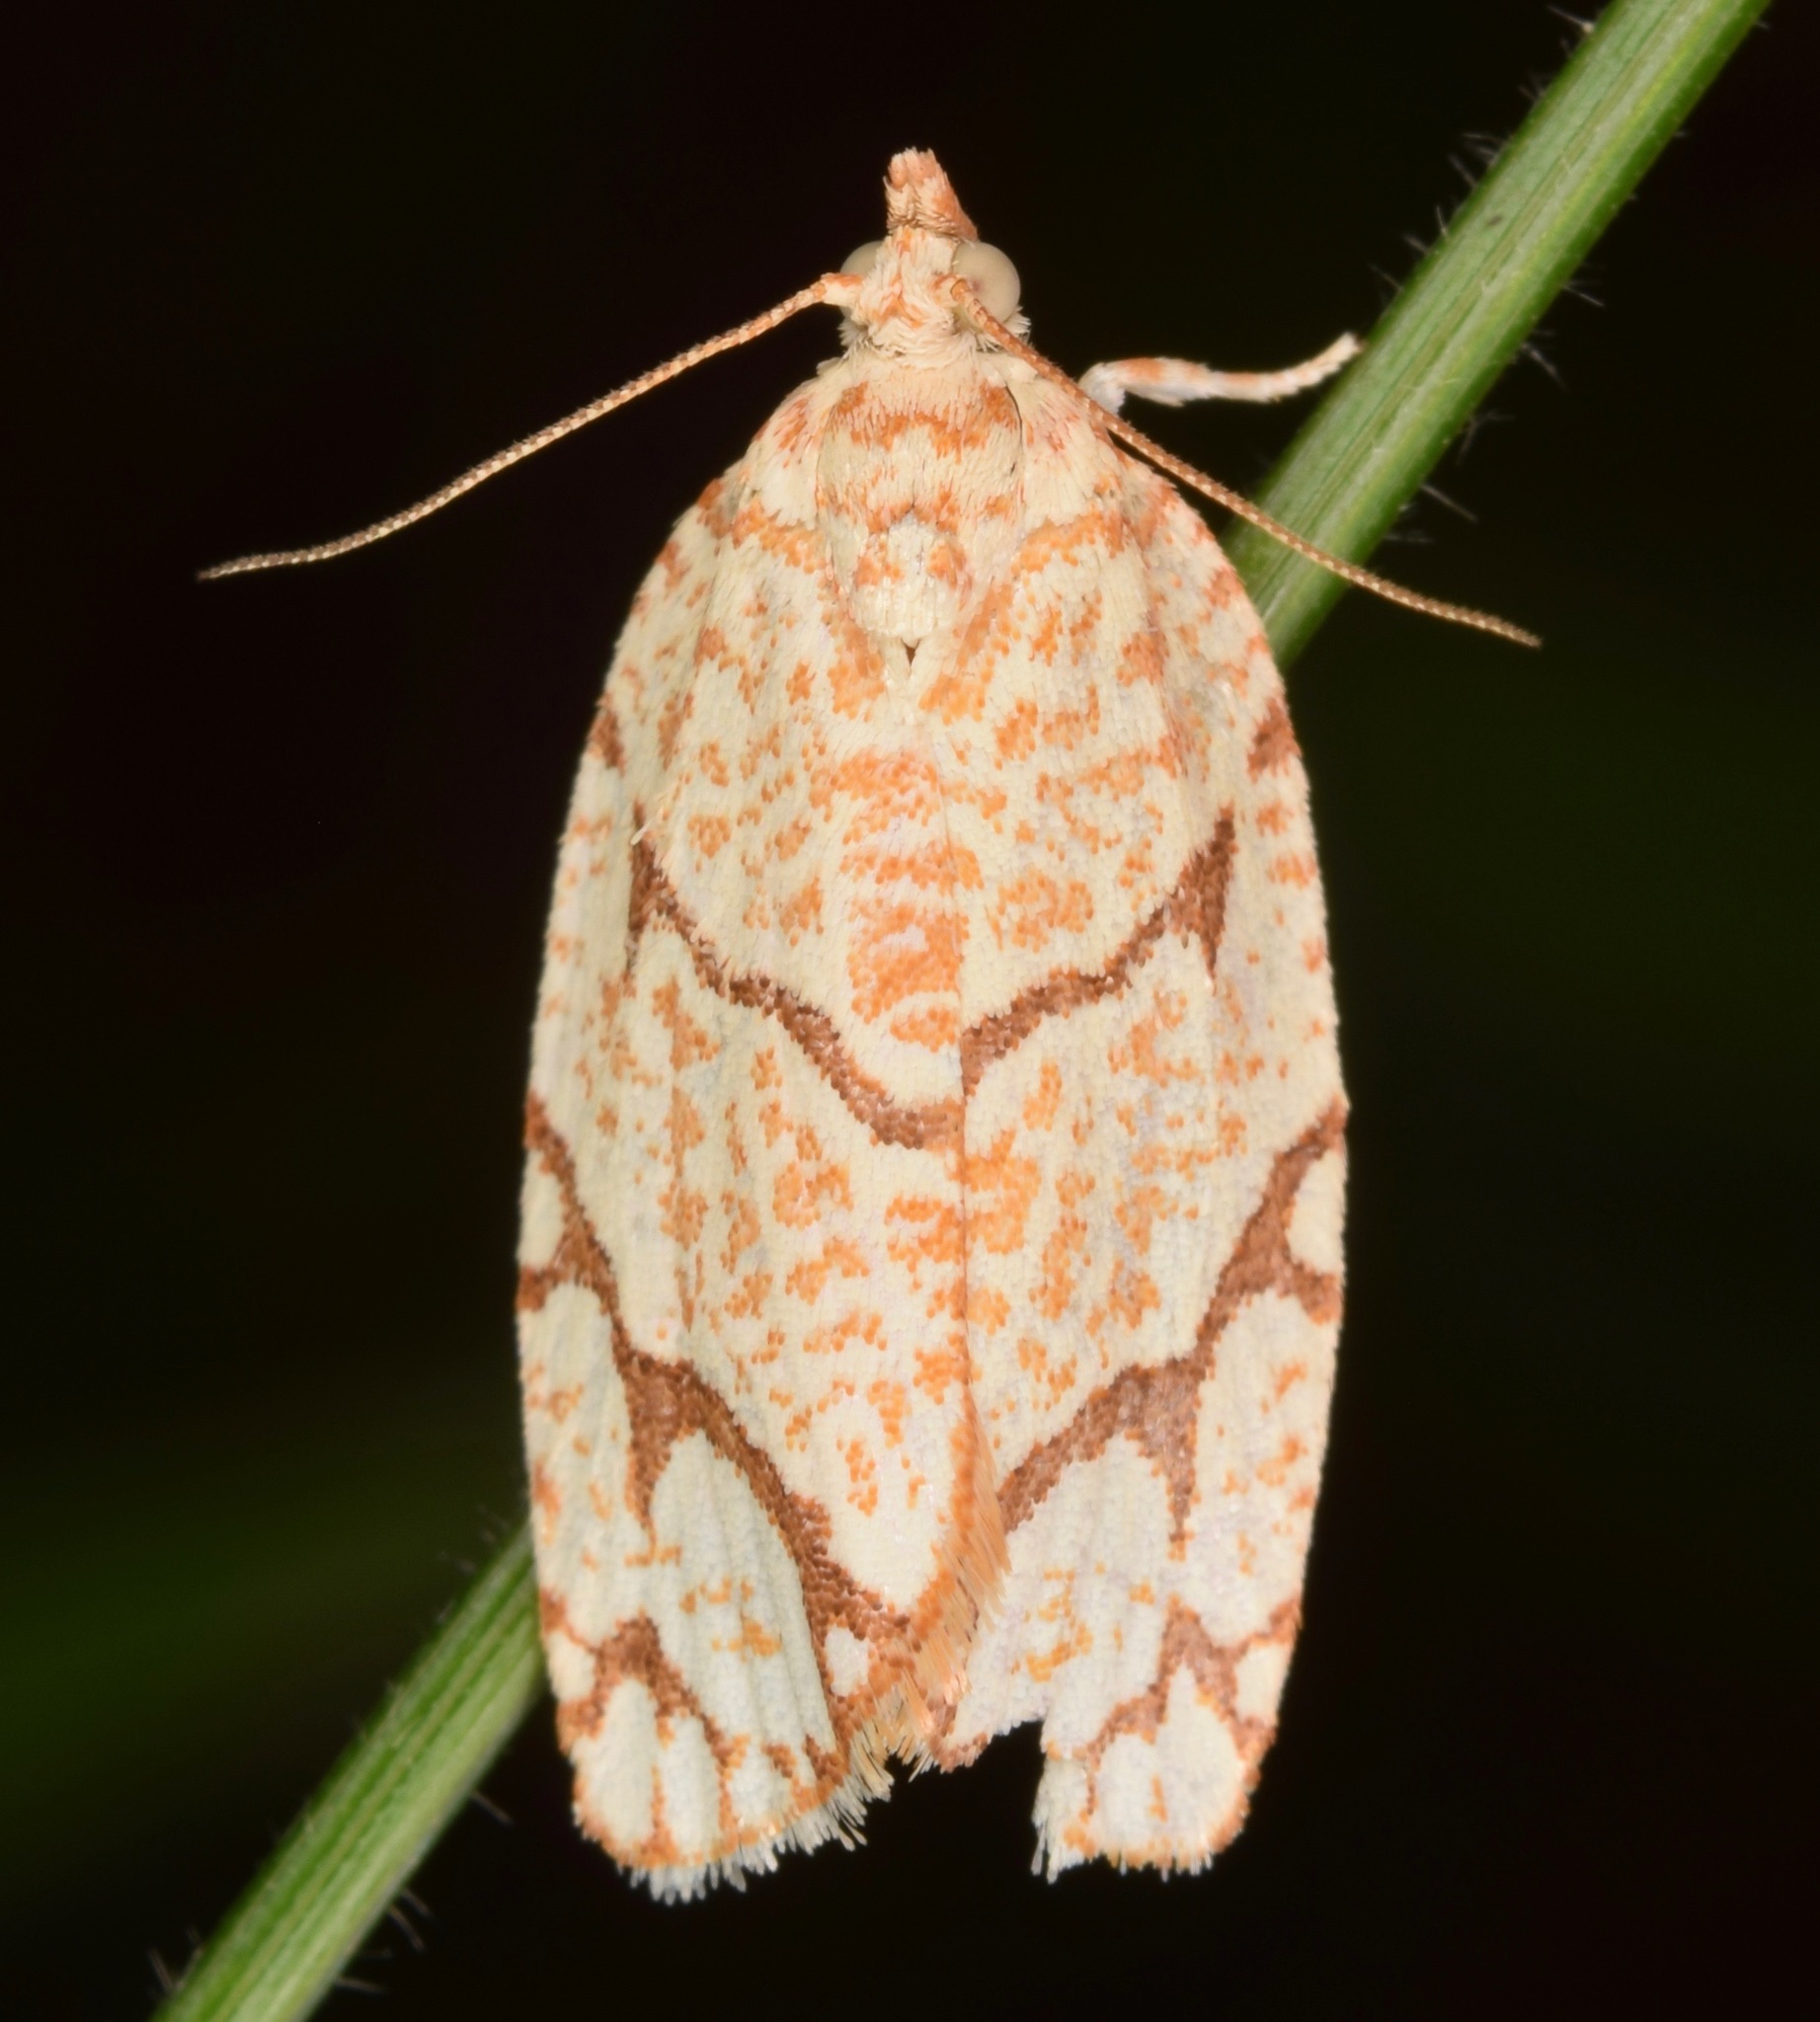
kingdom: Animalia
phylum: Arthropoda
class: Insecta
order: Lepidoptera
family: Tortricidae
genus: Argyrotaenia
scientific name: Argyrotaenia quercifoliana
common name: Yellow-winged oak leafroller moth
